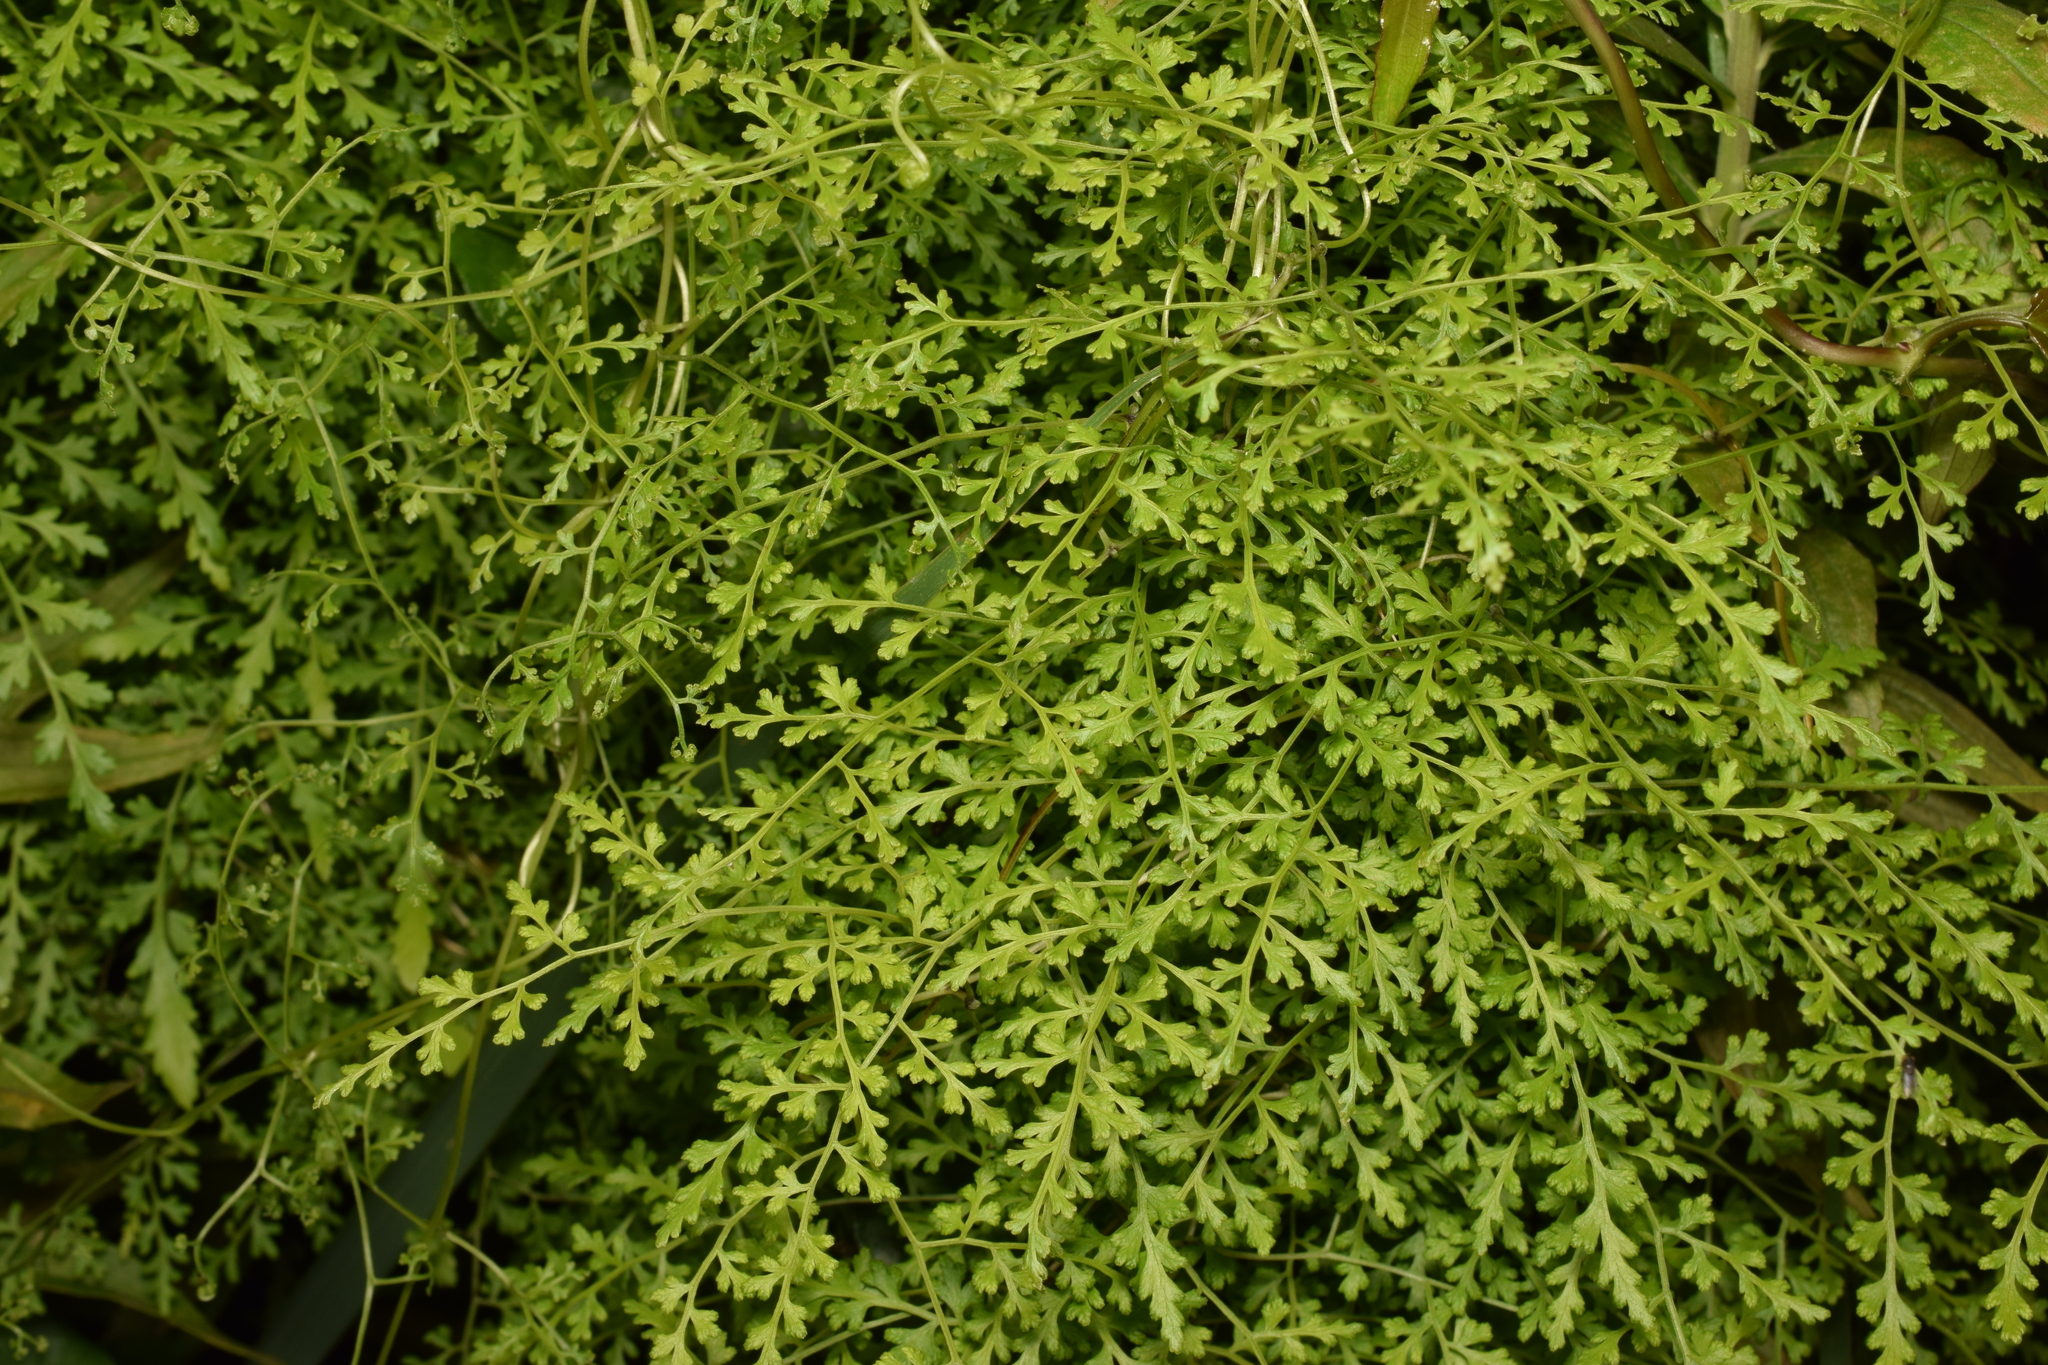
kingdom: Plantae
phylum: Tracheophyta
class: Polypodiopsida
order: Schizaeales
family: Lygodiaceae
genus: Lygodium
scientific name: Lygodium japonicum
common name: Japanese climbing fern
